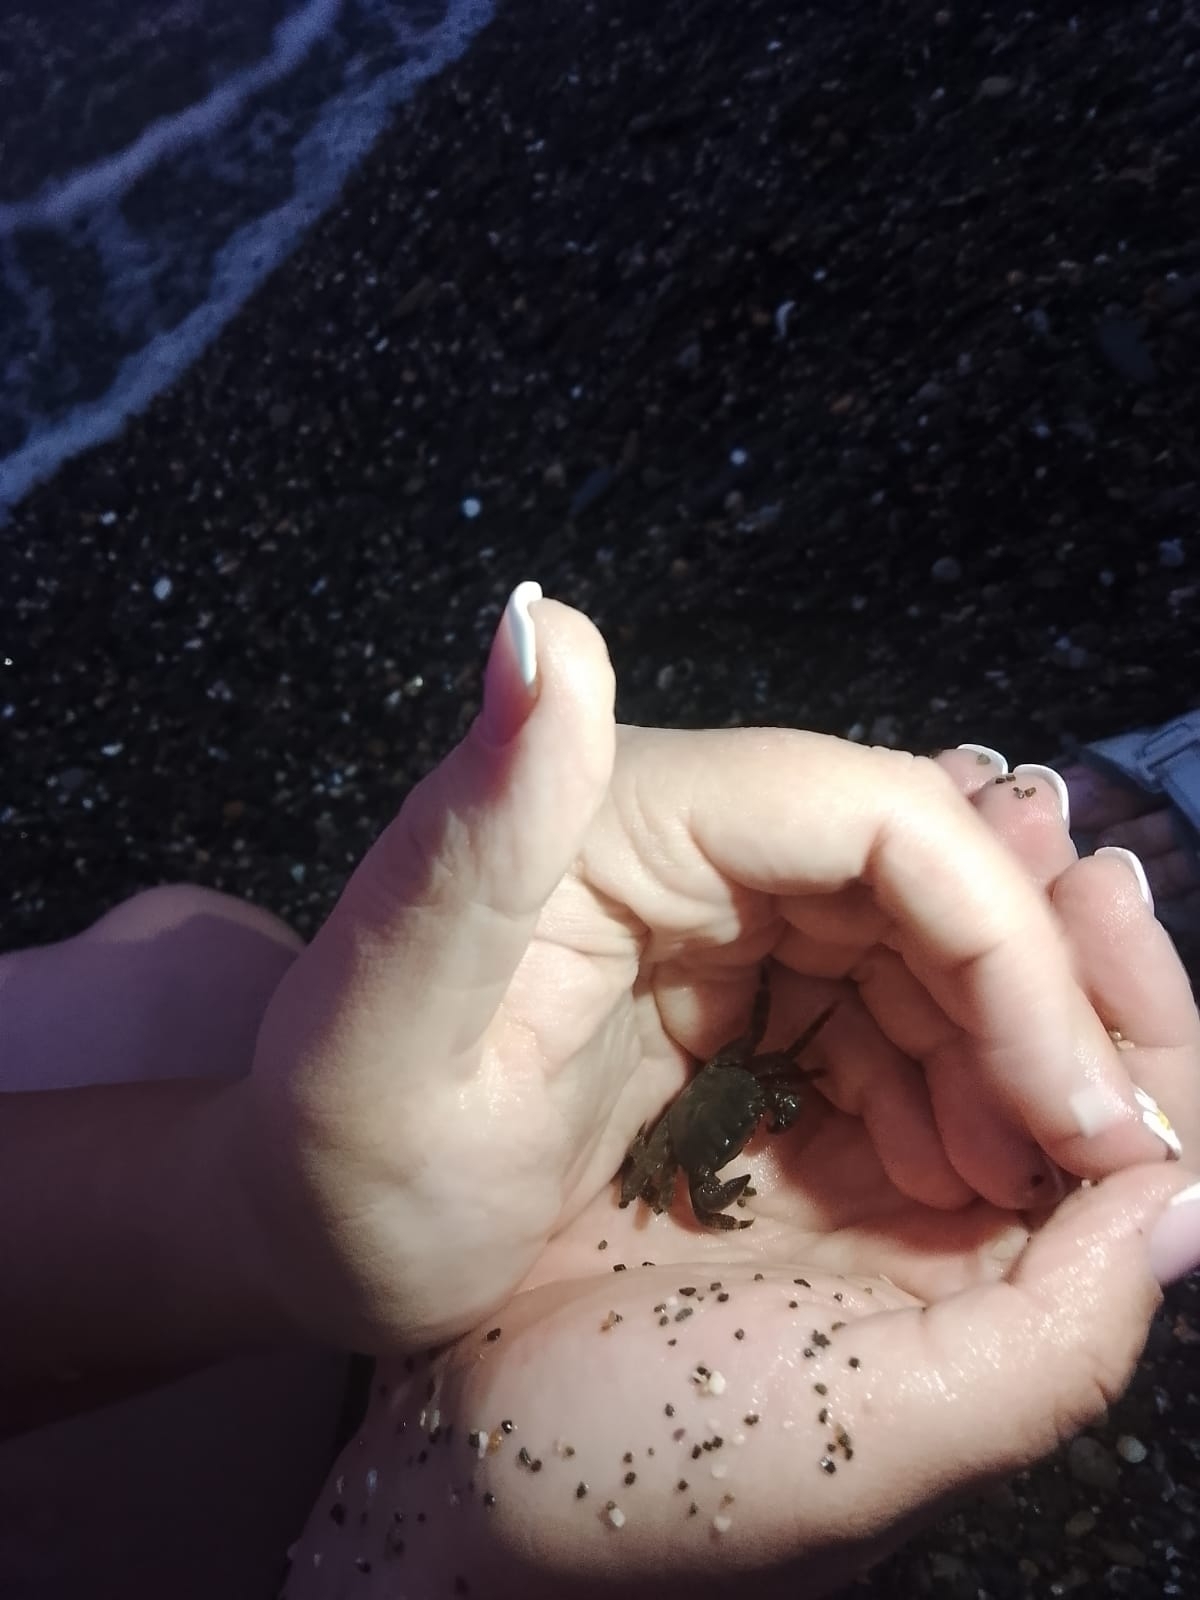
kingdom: Animalia
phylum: Arthropoda
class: Malacostraca
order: Decapoda
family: Grapsidae
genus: Pachygrapsus
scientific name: Pachygrapsus marmoratus
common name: Marbled rock crab
